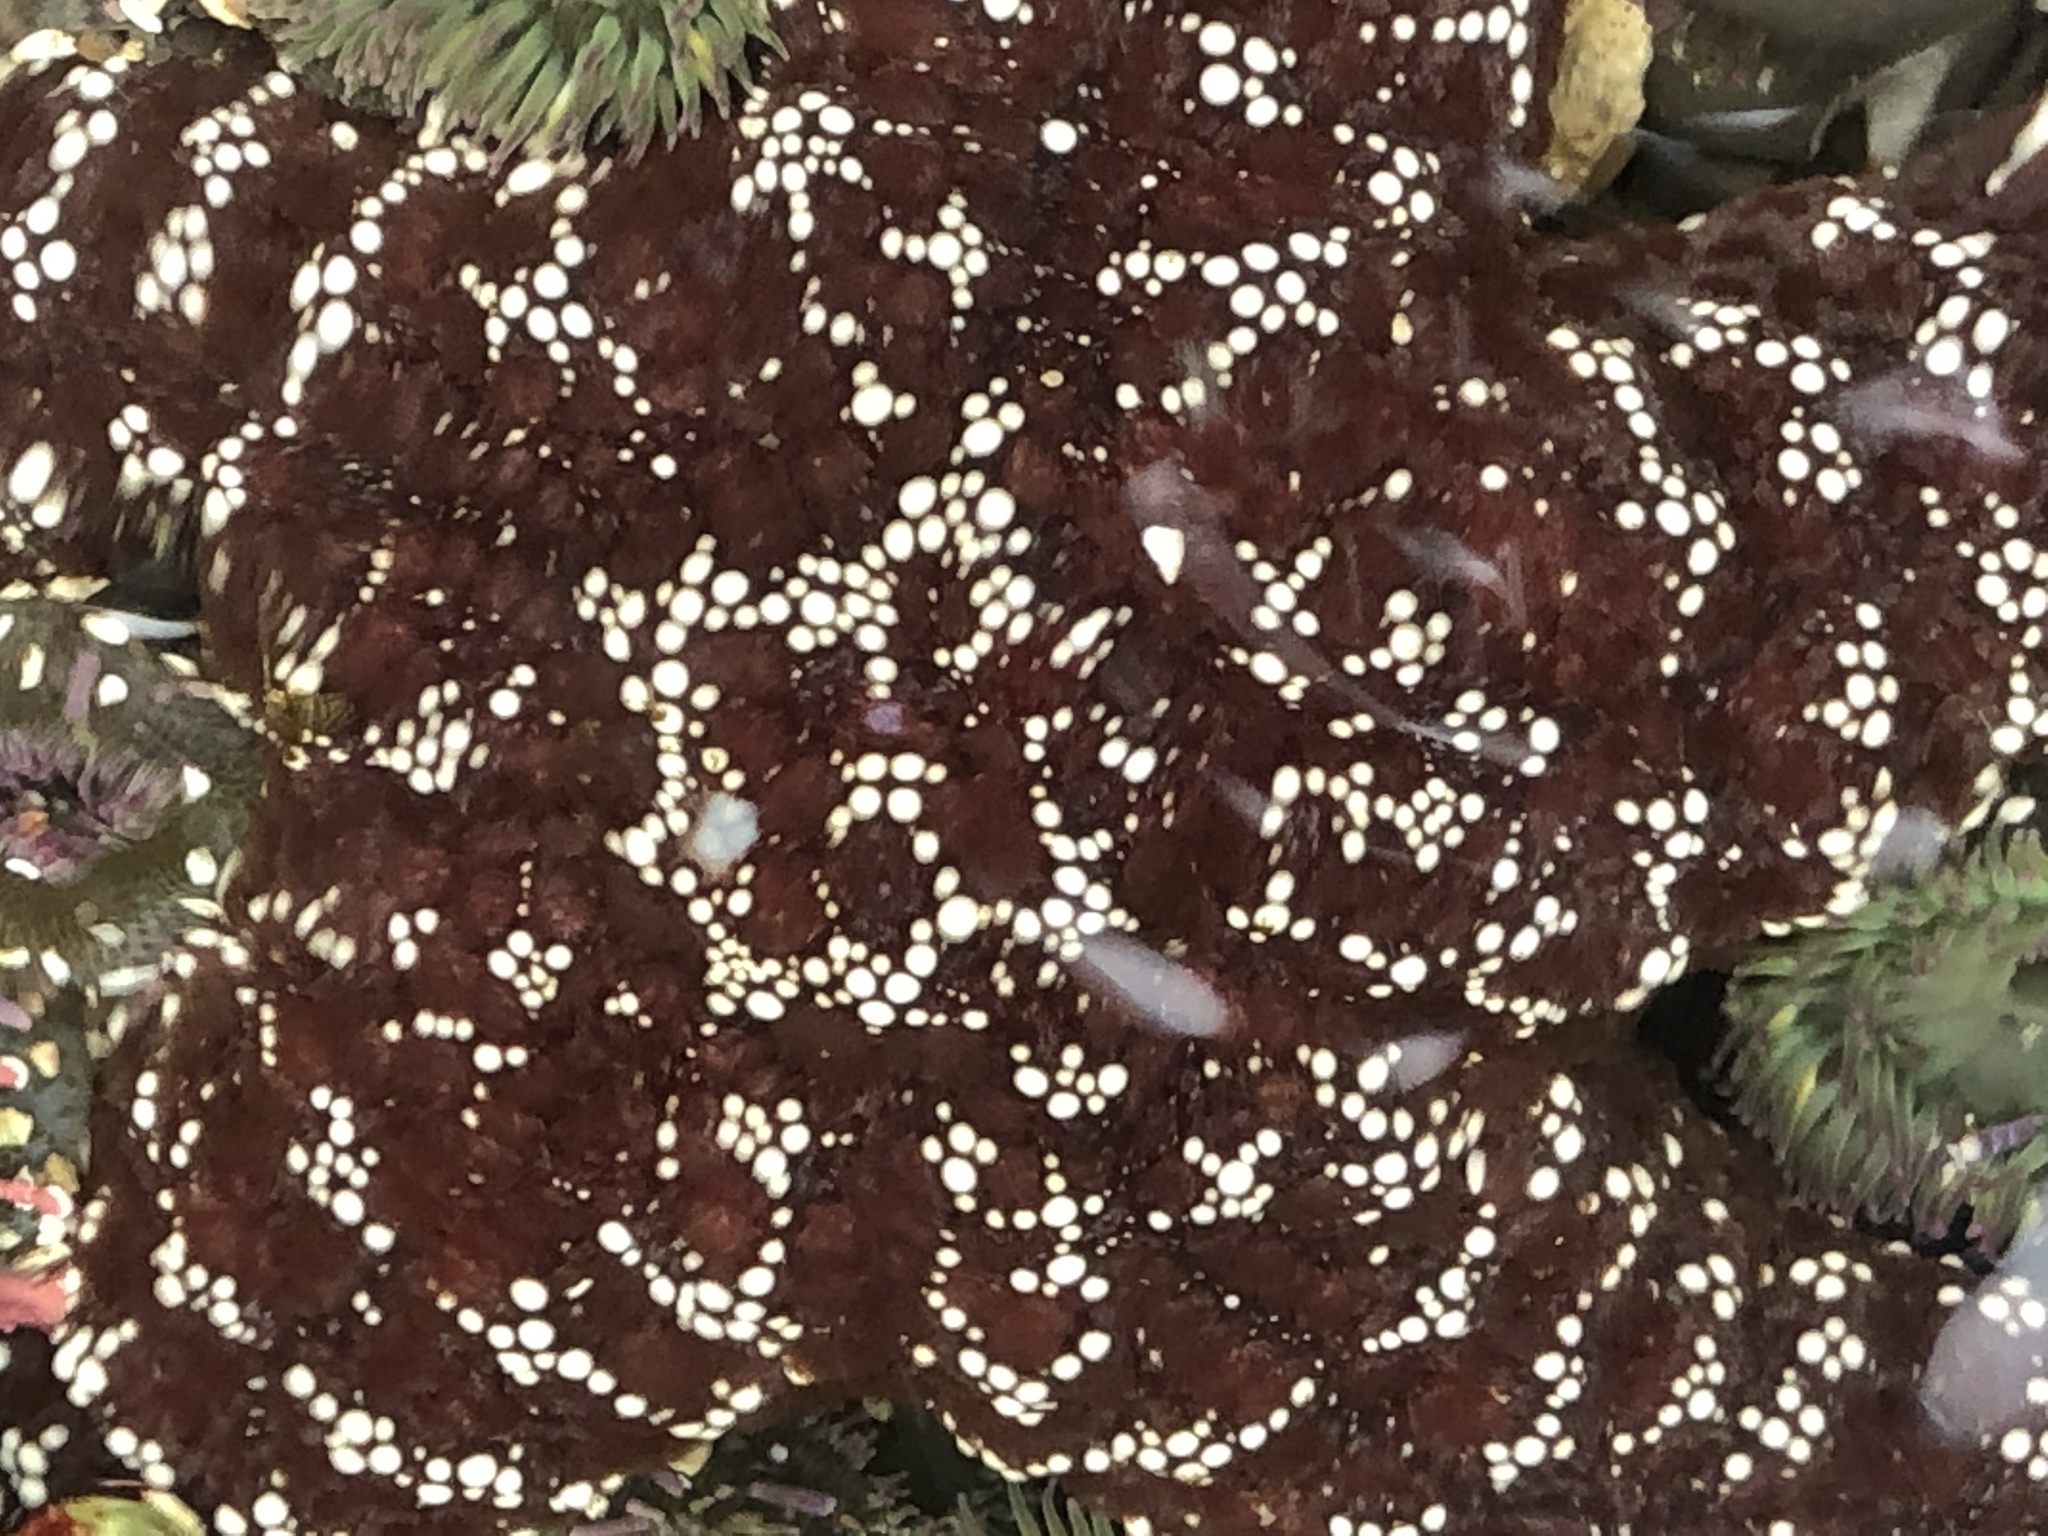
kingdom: Animalia
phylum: Echinodermata
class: Asteroidea
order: Forcipulatida
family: Asteriidae
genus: Pisaster
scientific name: Pisaster ochraceus
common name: Ochre stars
